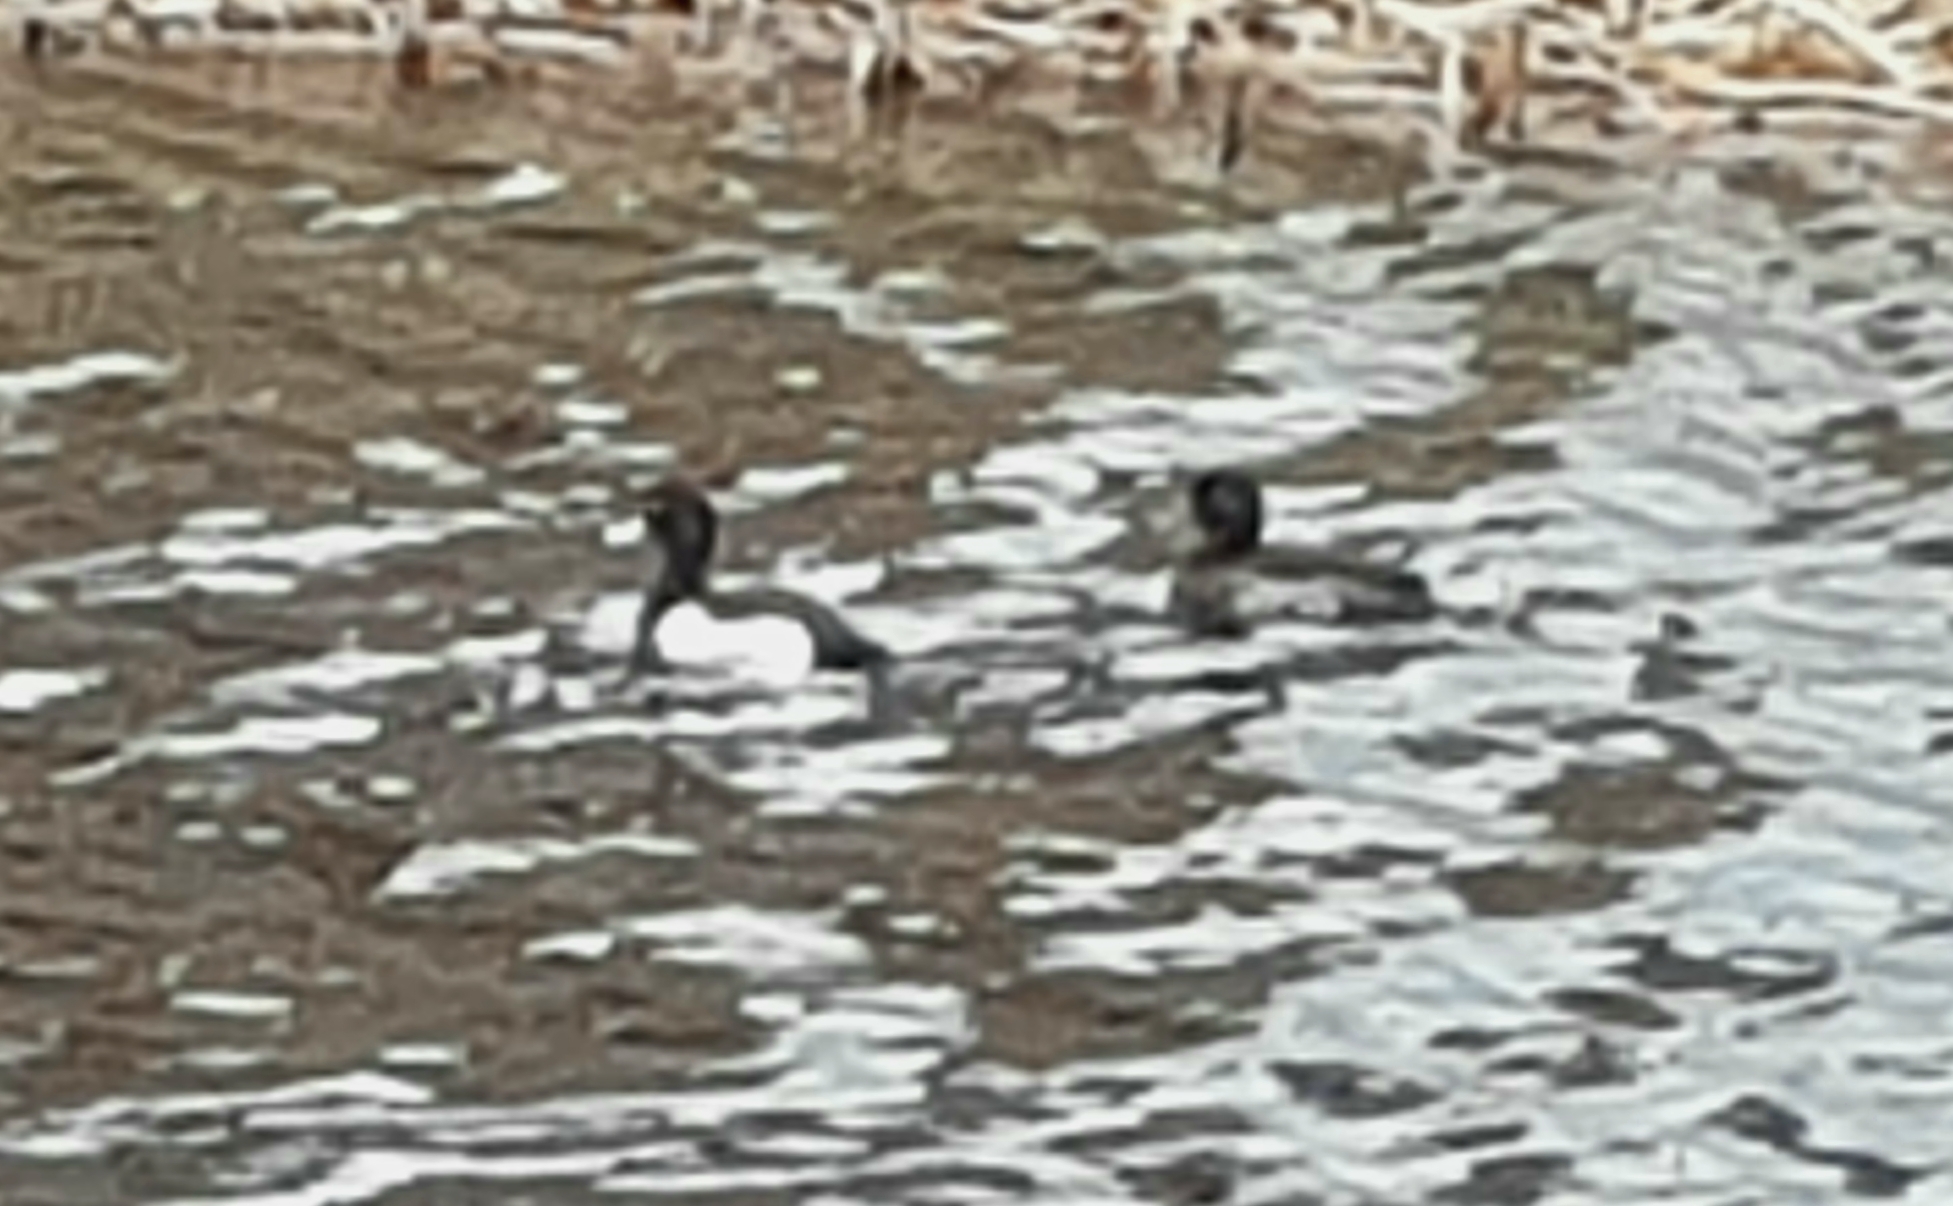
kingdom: Animalia
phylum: Chordata
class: Aves
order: Anseriformes
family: Anatidae
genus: Aythya
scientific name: Aythya fuligula
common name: Tufted duck
